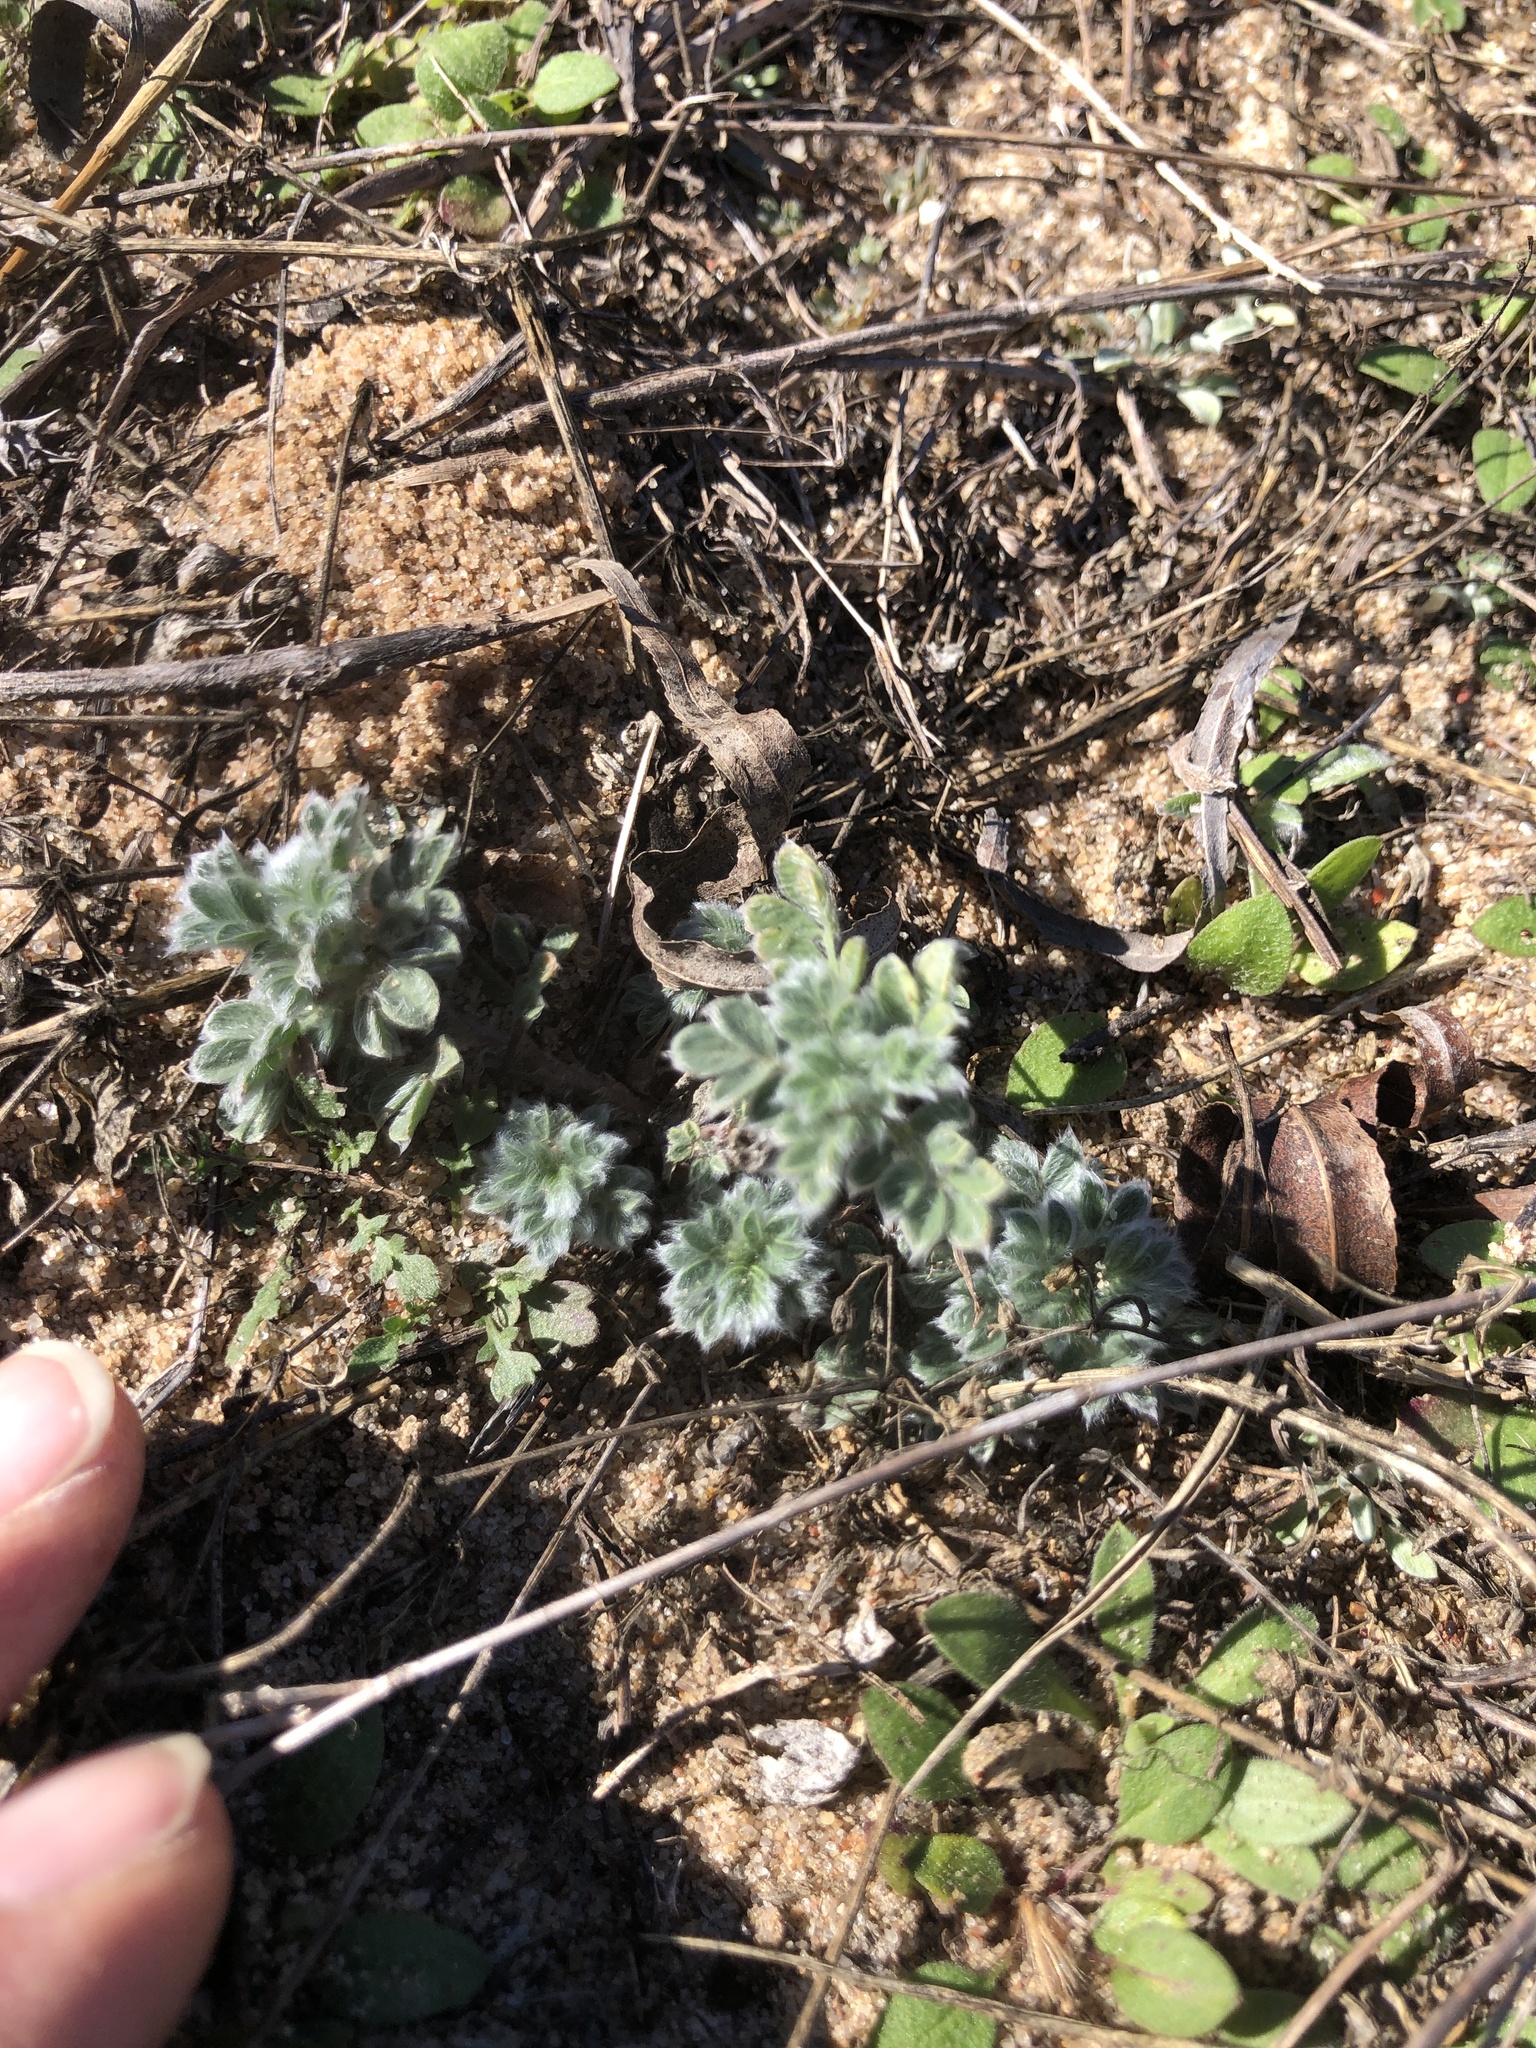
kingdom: Plantae
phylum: Tracheophyta
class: Magnoliopsida
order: Fabales
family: Fabaceae
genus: Dalea
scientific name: Dalea obovata
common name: Pussyfoot
